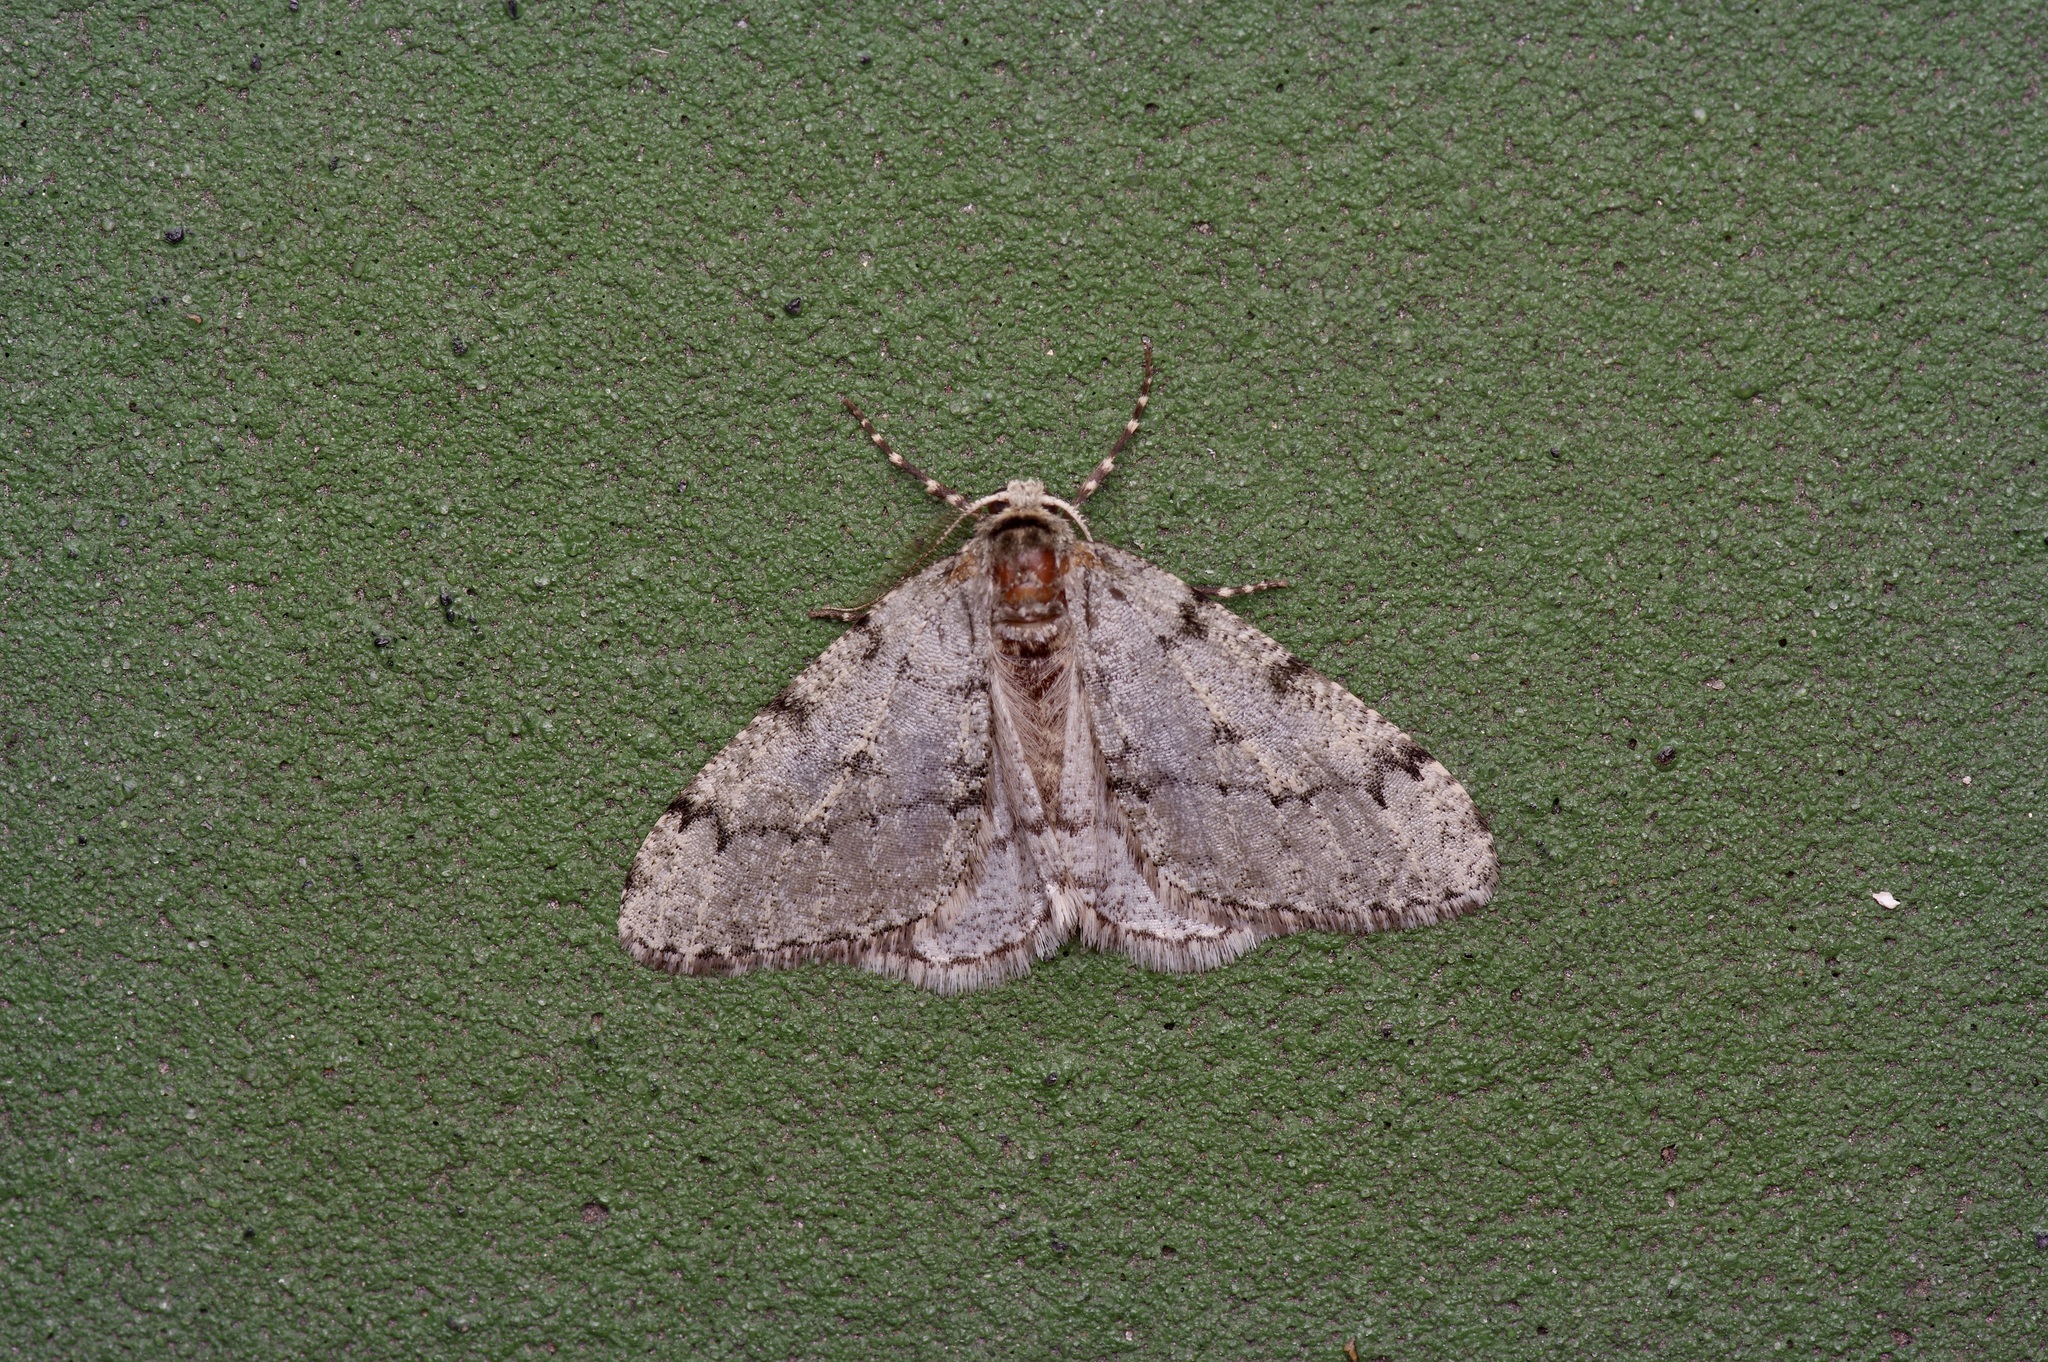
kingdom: Animalia
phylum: Arthropoda
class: Insecta
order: Lepidoptera
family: Geometridae
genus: Phigalia
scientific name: Phigalia strigataria
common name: Small phigalia
